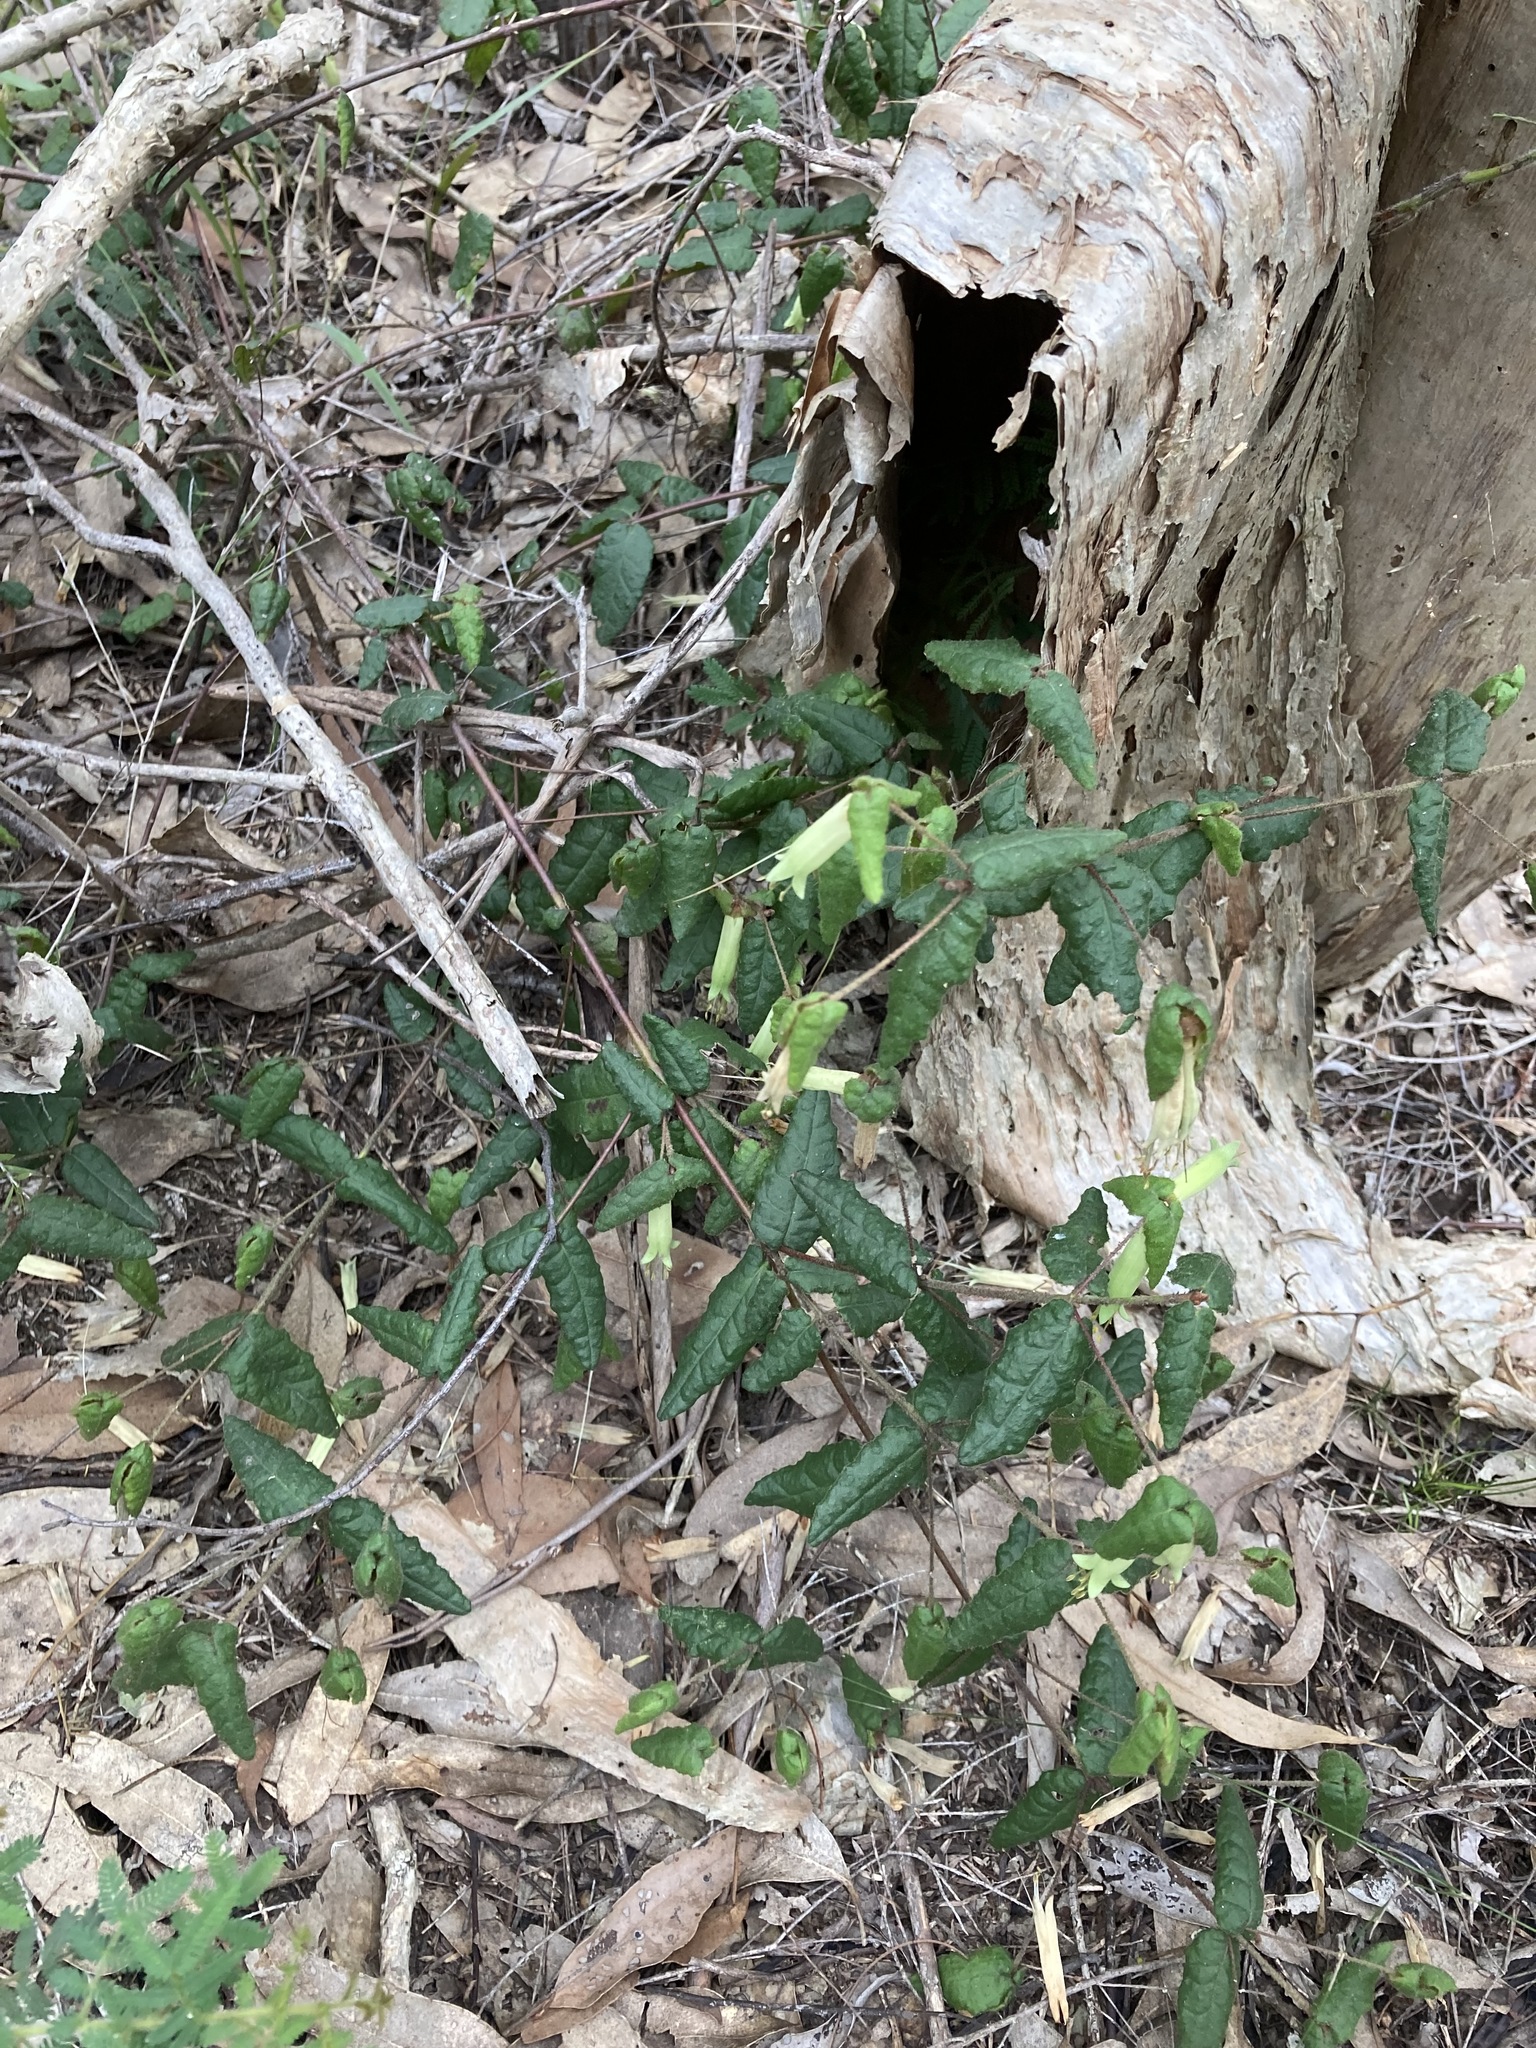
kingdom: Plantae
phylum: Tracheophyta
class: Magnoliopsida
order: Sapindales
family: Rutaceae
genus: Correa
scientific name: Correa reflexa
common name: Common correa
